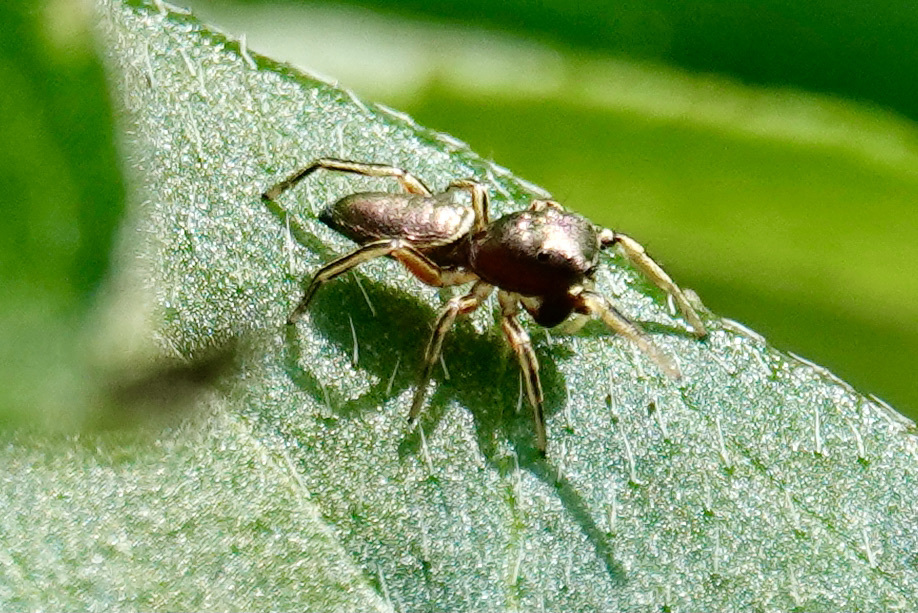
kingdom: Animalia
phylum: Arthropoda
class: Arachnida
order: Araneae
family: Salticidae
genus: Tutelina
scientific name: Tutelina elegans
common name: Thin-spined jumping spider
